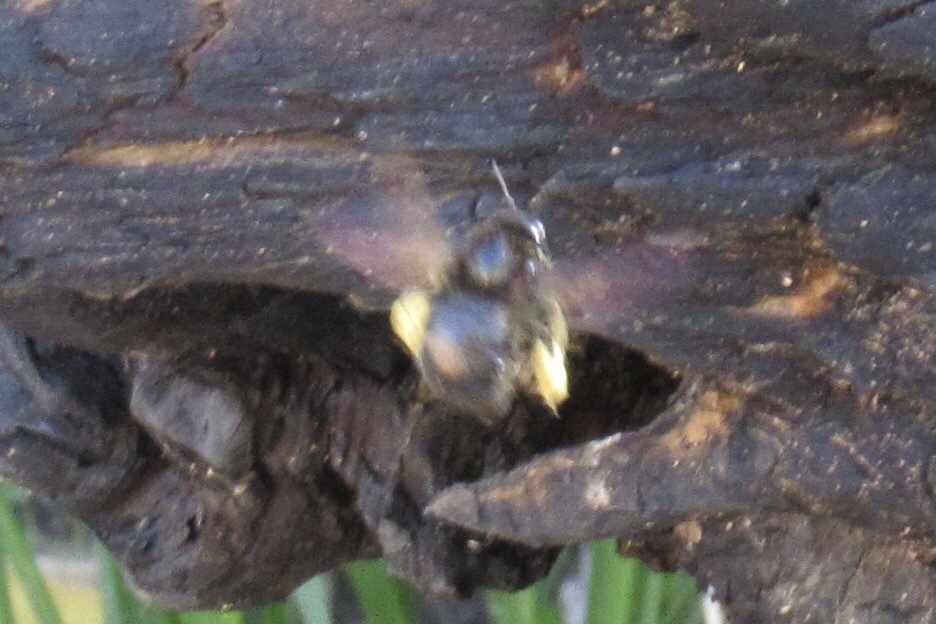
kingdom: Animalia
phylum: Arthropoda
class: Insecta
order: Hymenoptera
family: Apidae
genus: Xylocopa
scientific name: Xylocopa sonorina
